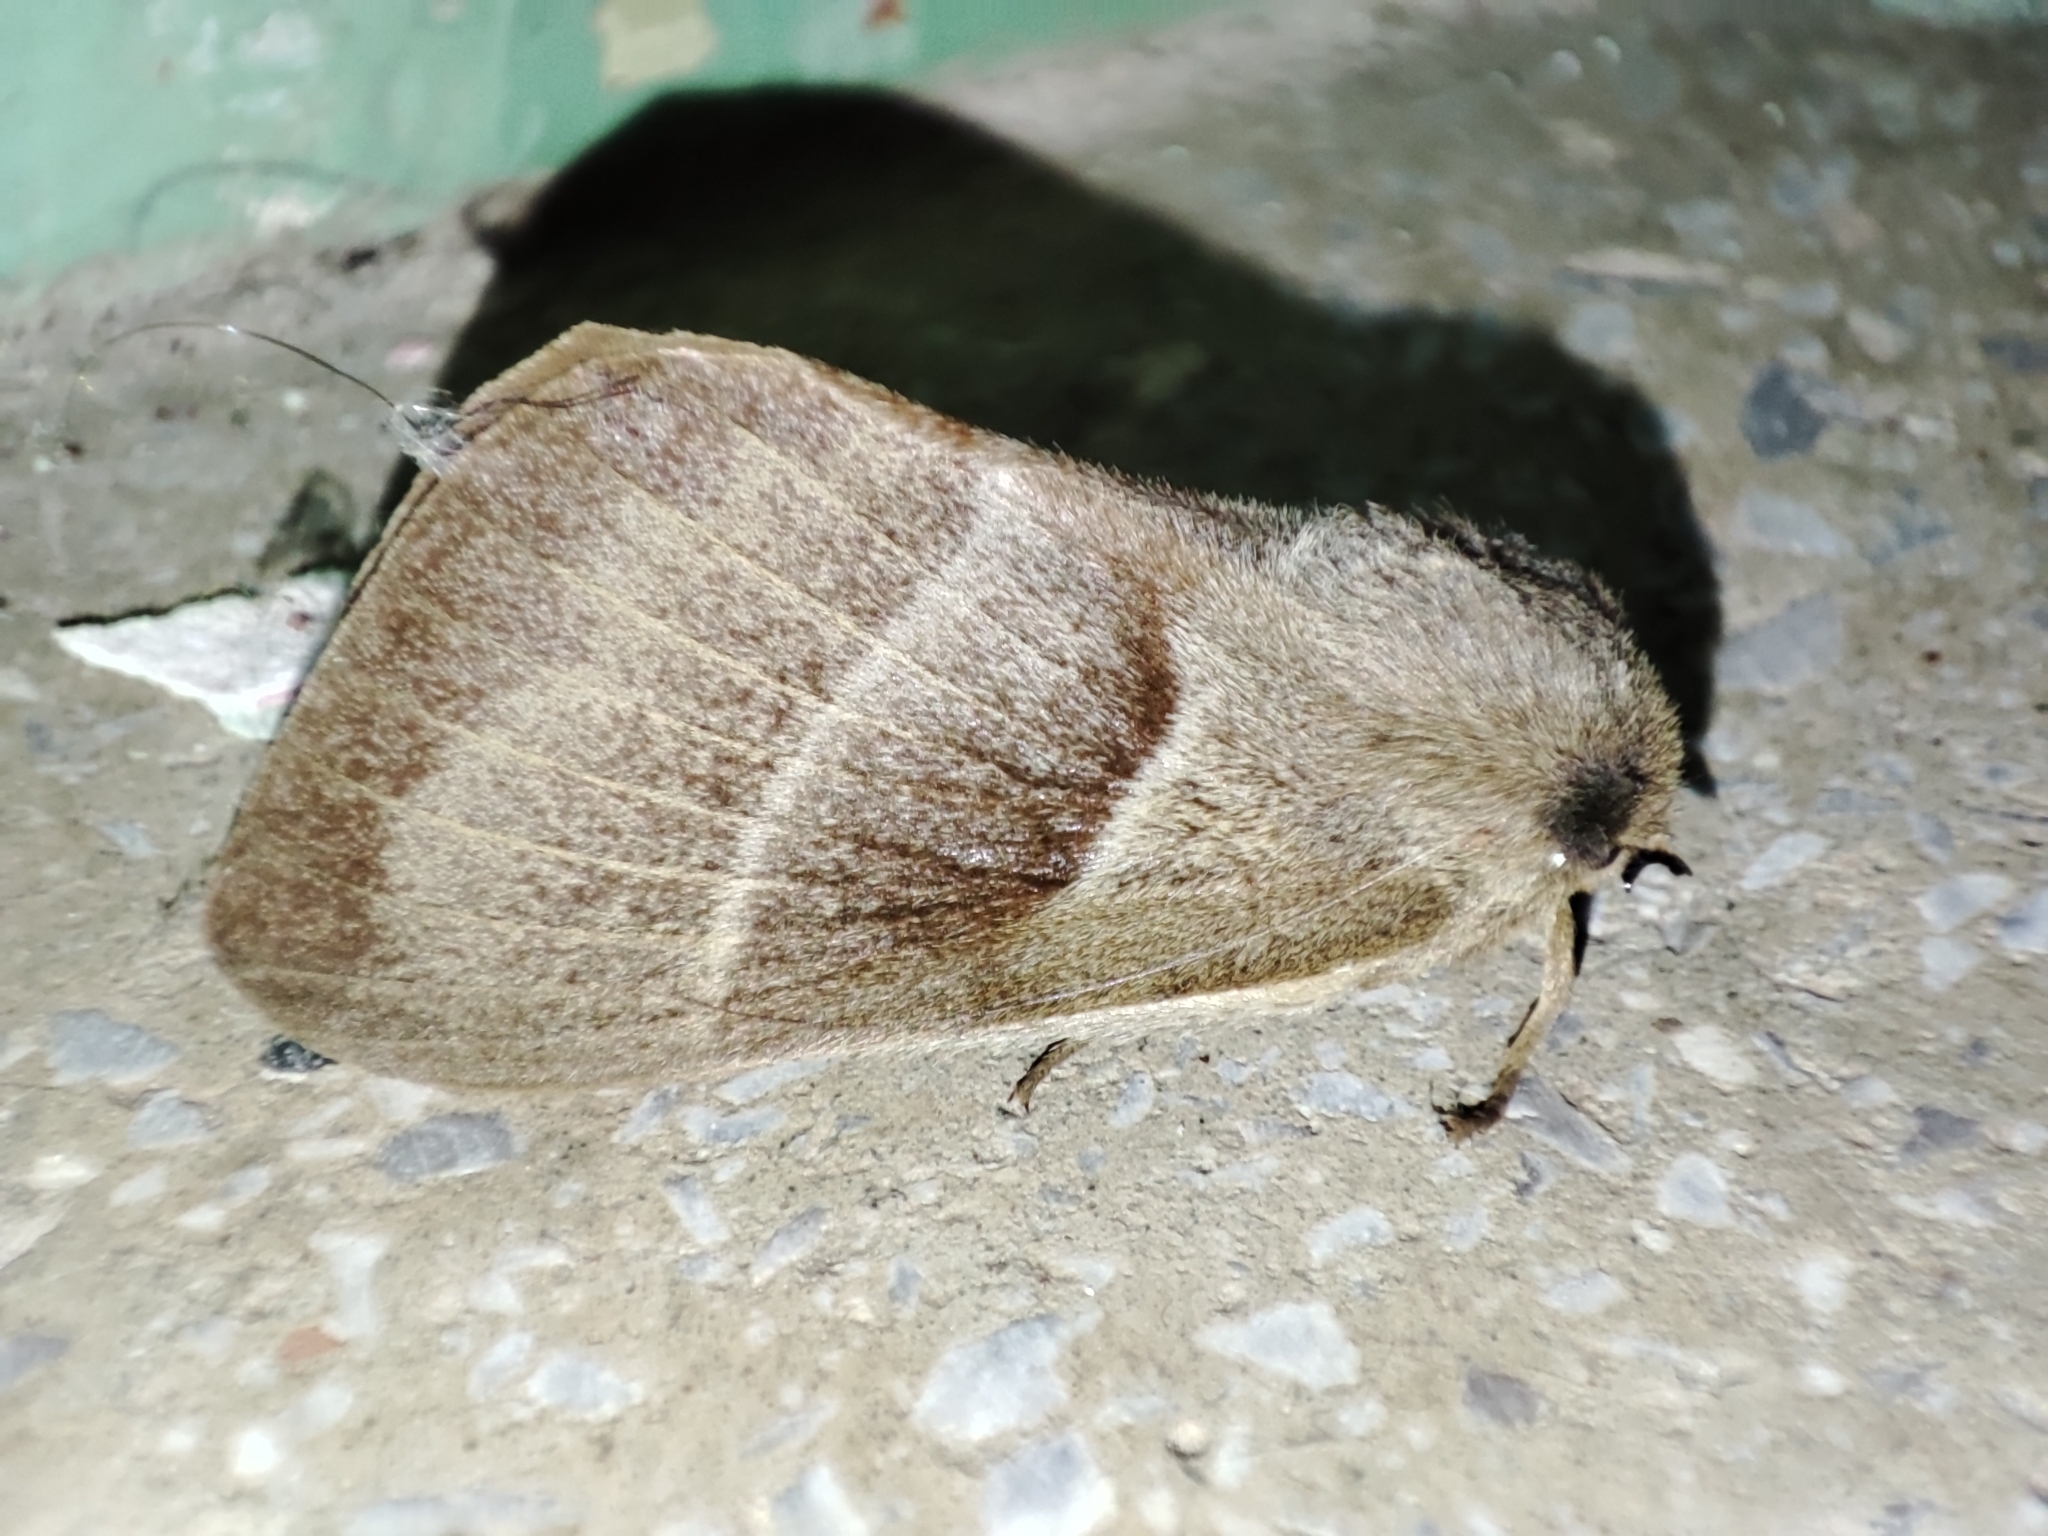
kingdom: Animalia
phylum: Arthropoda
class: Insecta
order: Lepidoptera
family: Lasiocampidae
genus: Macrothylacia
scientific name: Macrothylacia rubi
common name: Fox moth
